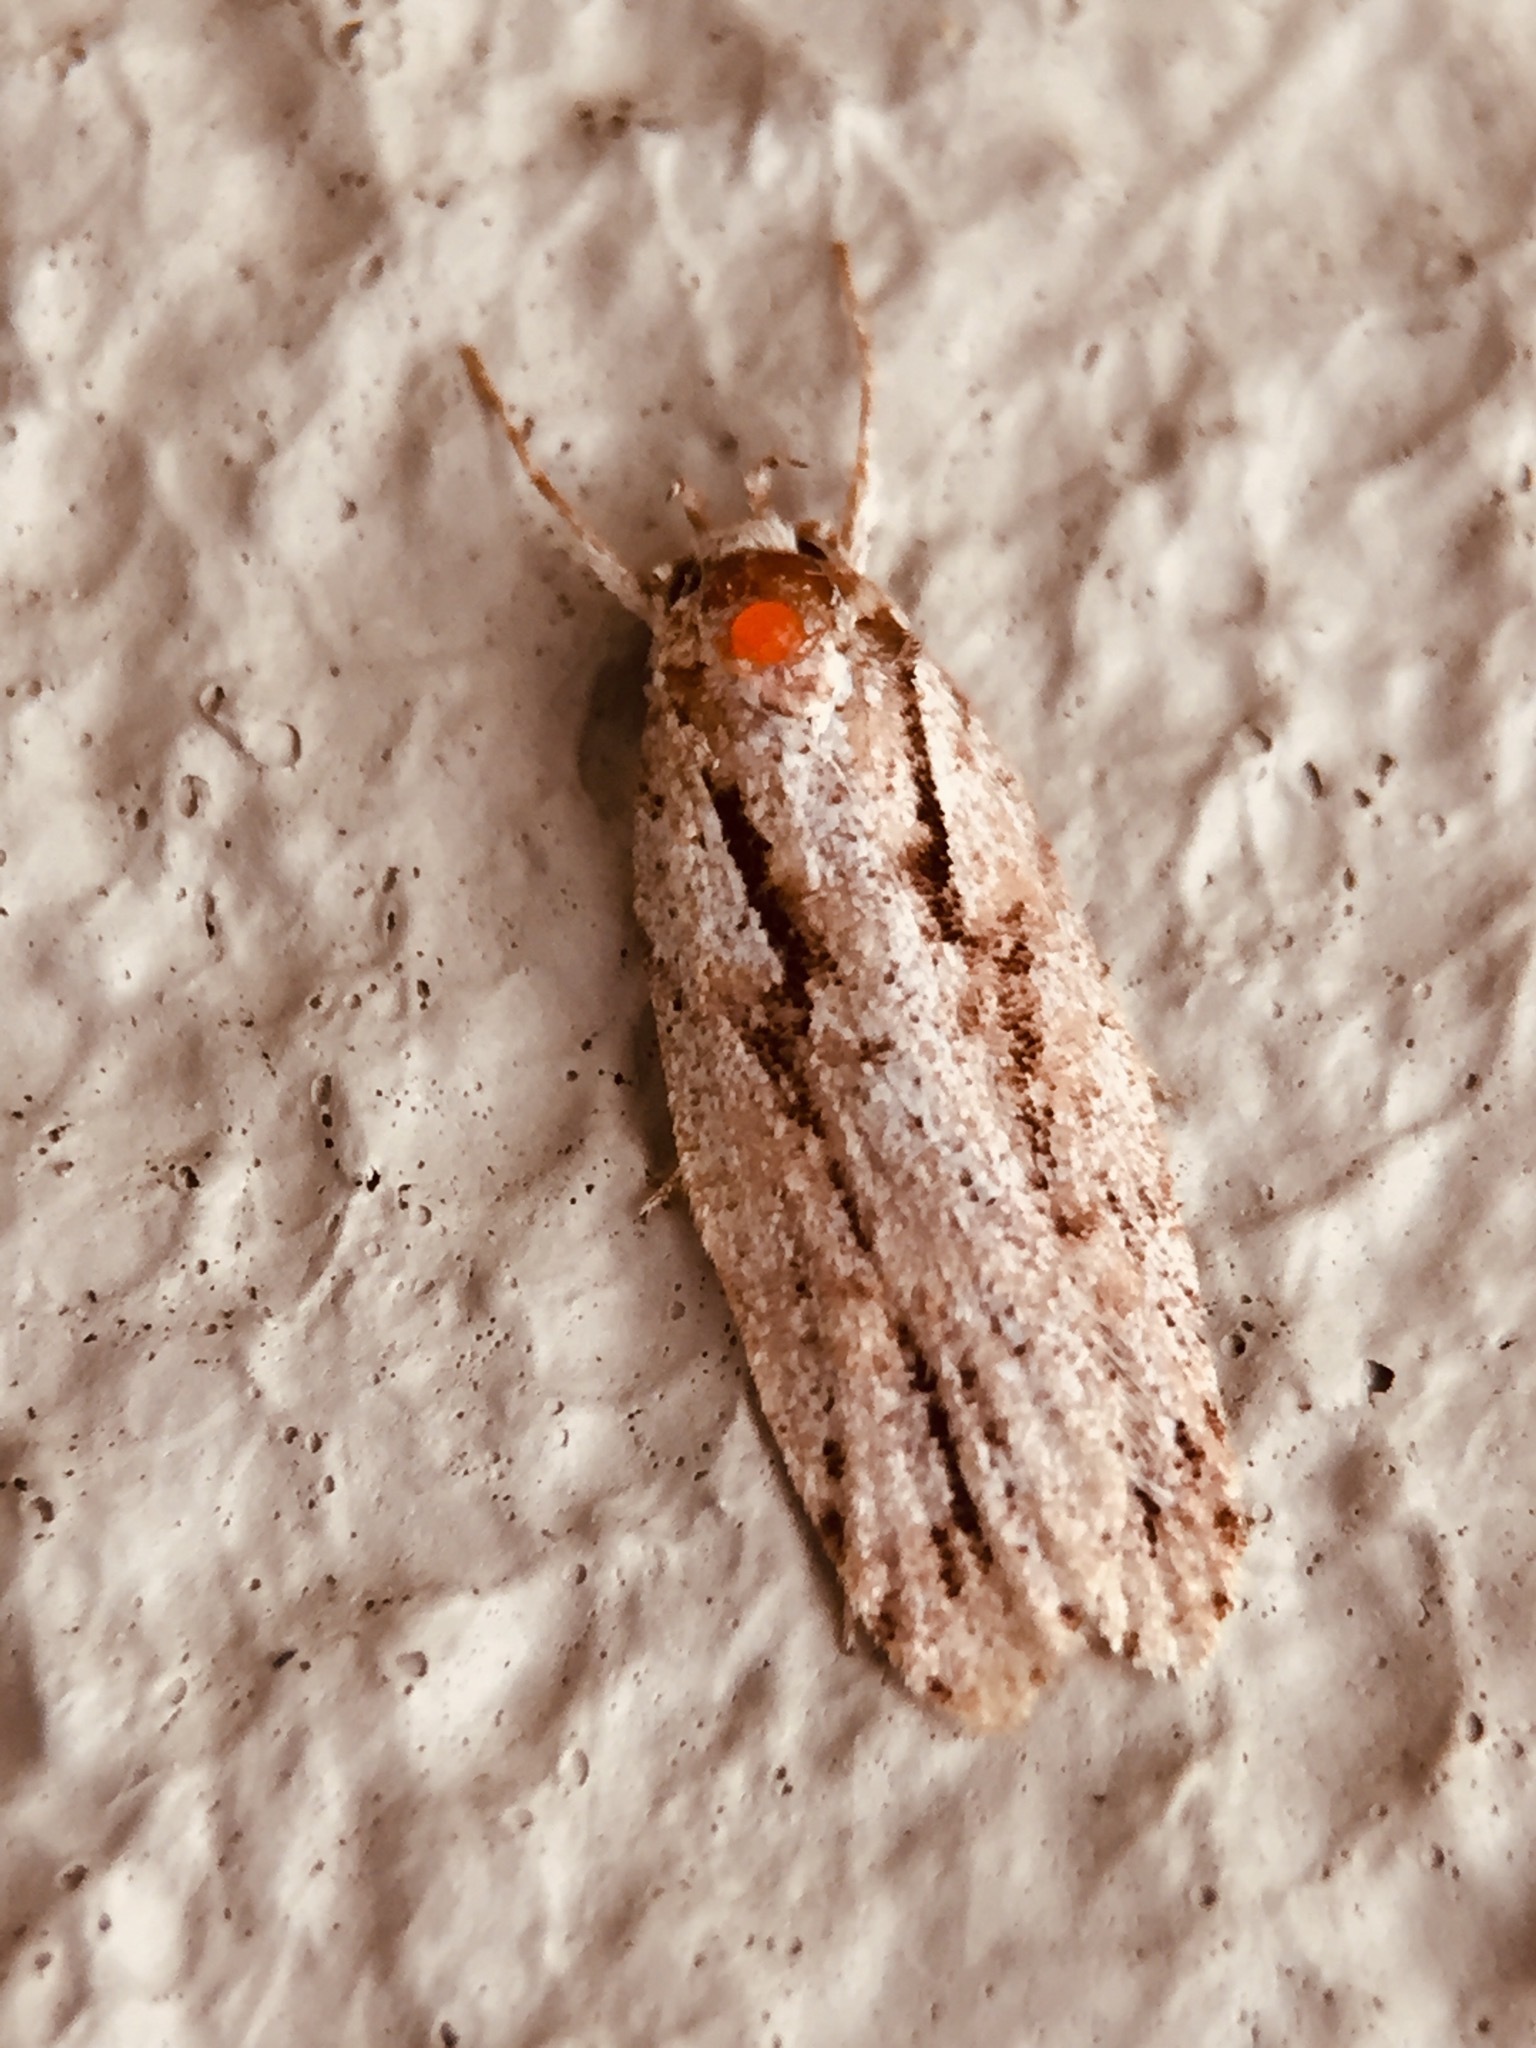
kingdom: Animalia
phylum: Arthropoda
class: Insecta
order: Lepidoptera
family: Oecophoridae
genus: Izatha
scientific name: Izatha attactella
